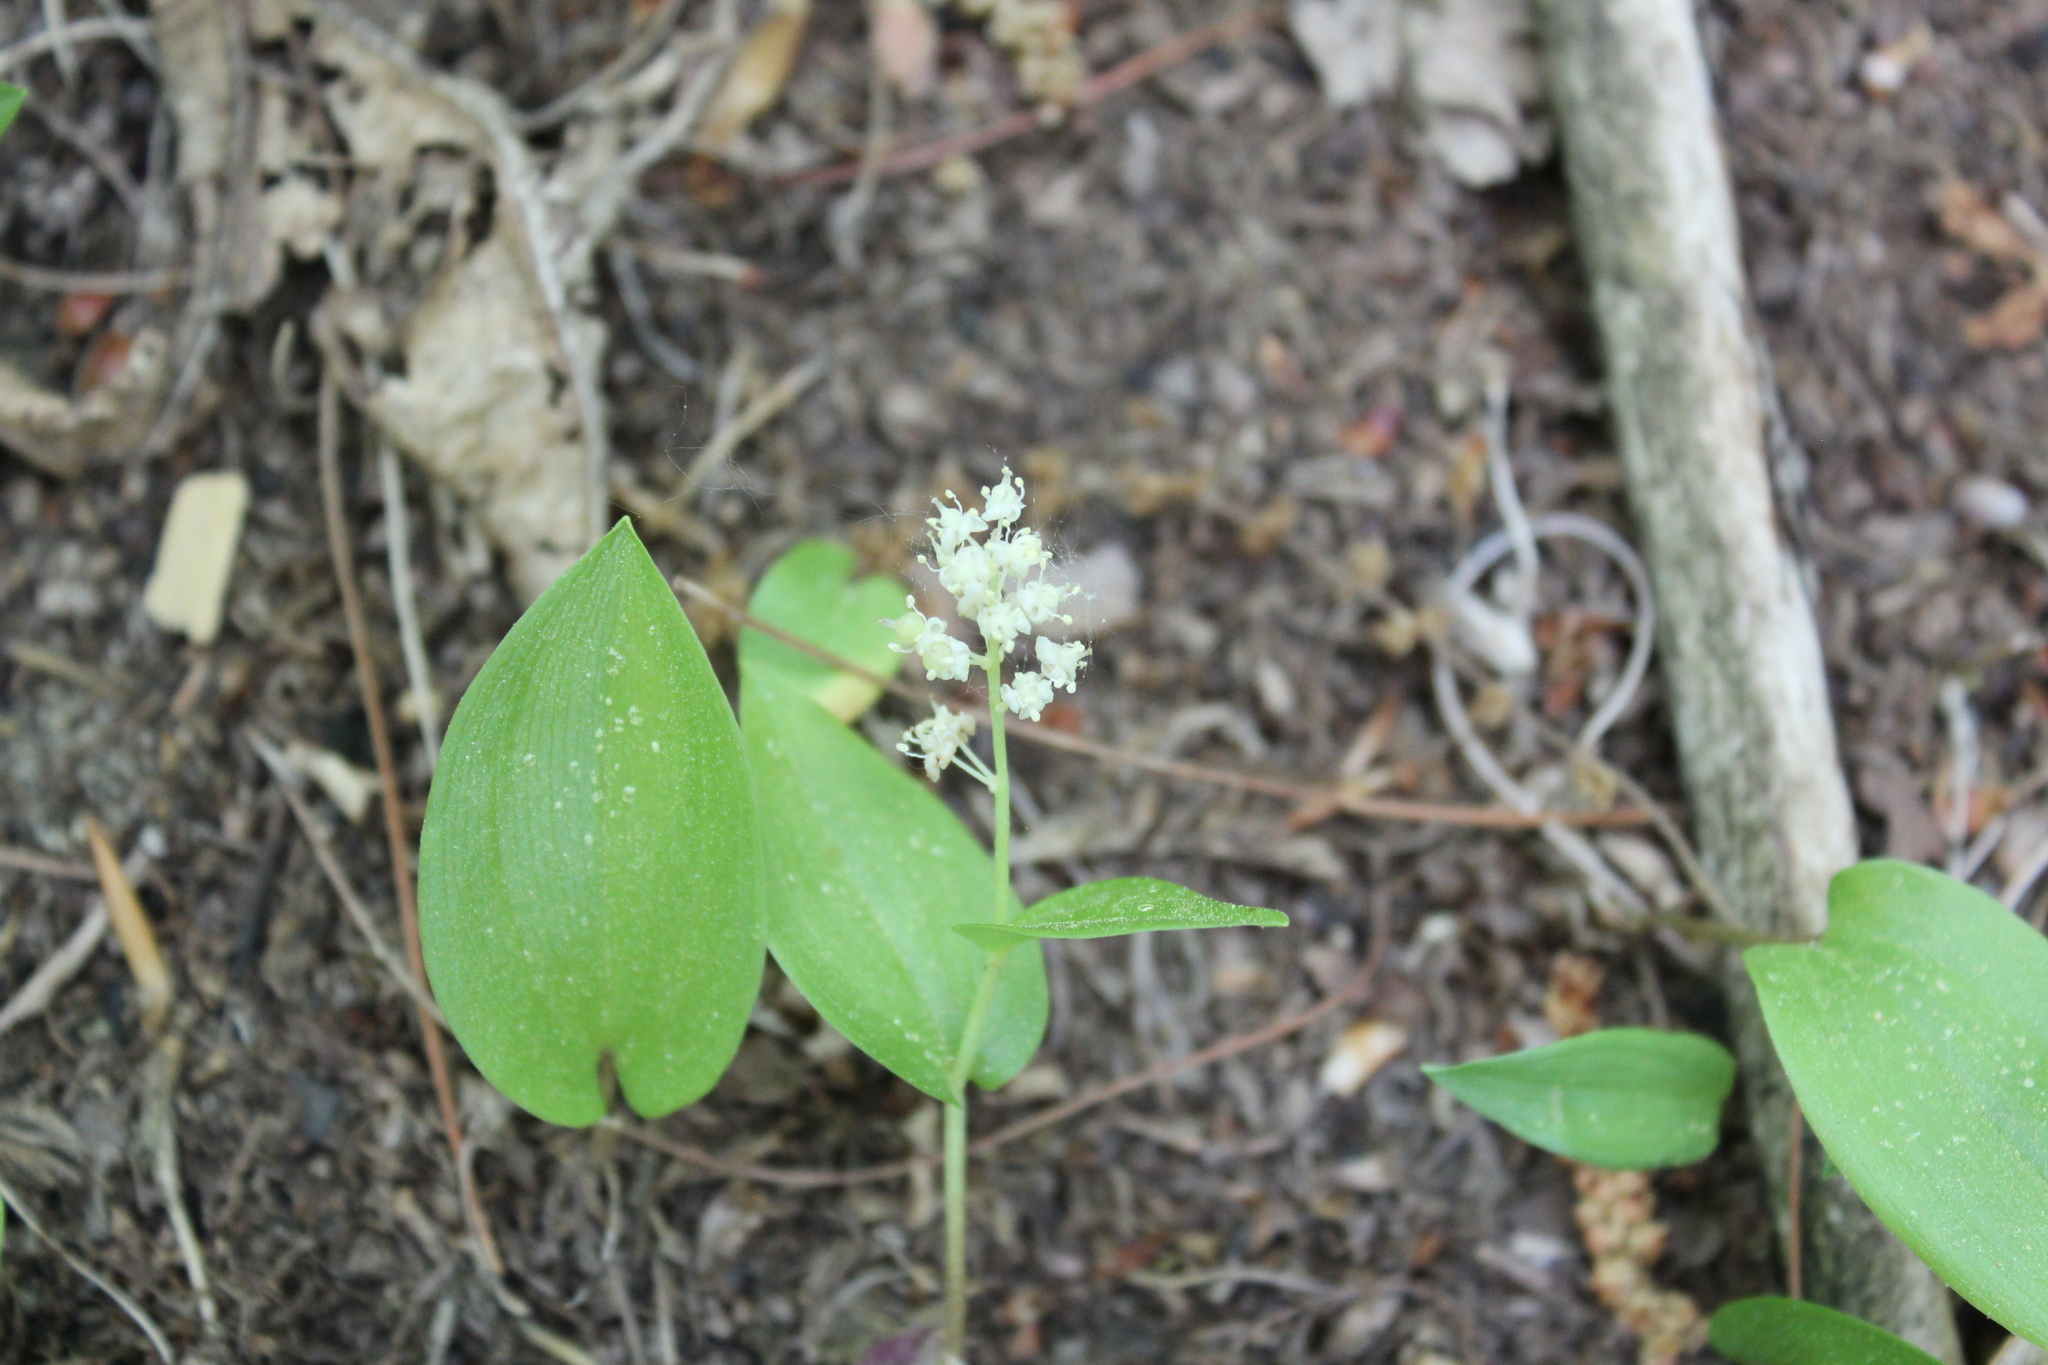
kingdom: Plantae
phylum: Tracheophyta
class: Liliopsida
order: Asparagales
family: Asparagaceae
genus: Maianthemum
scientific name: Maianthemum canadense
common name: False lily-of-the-valley
